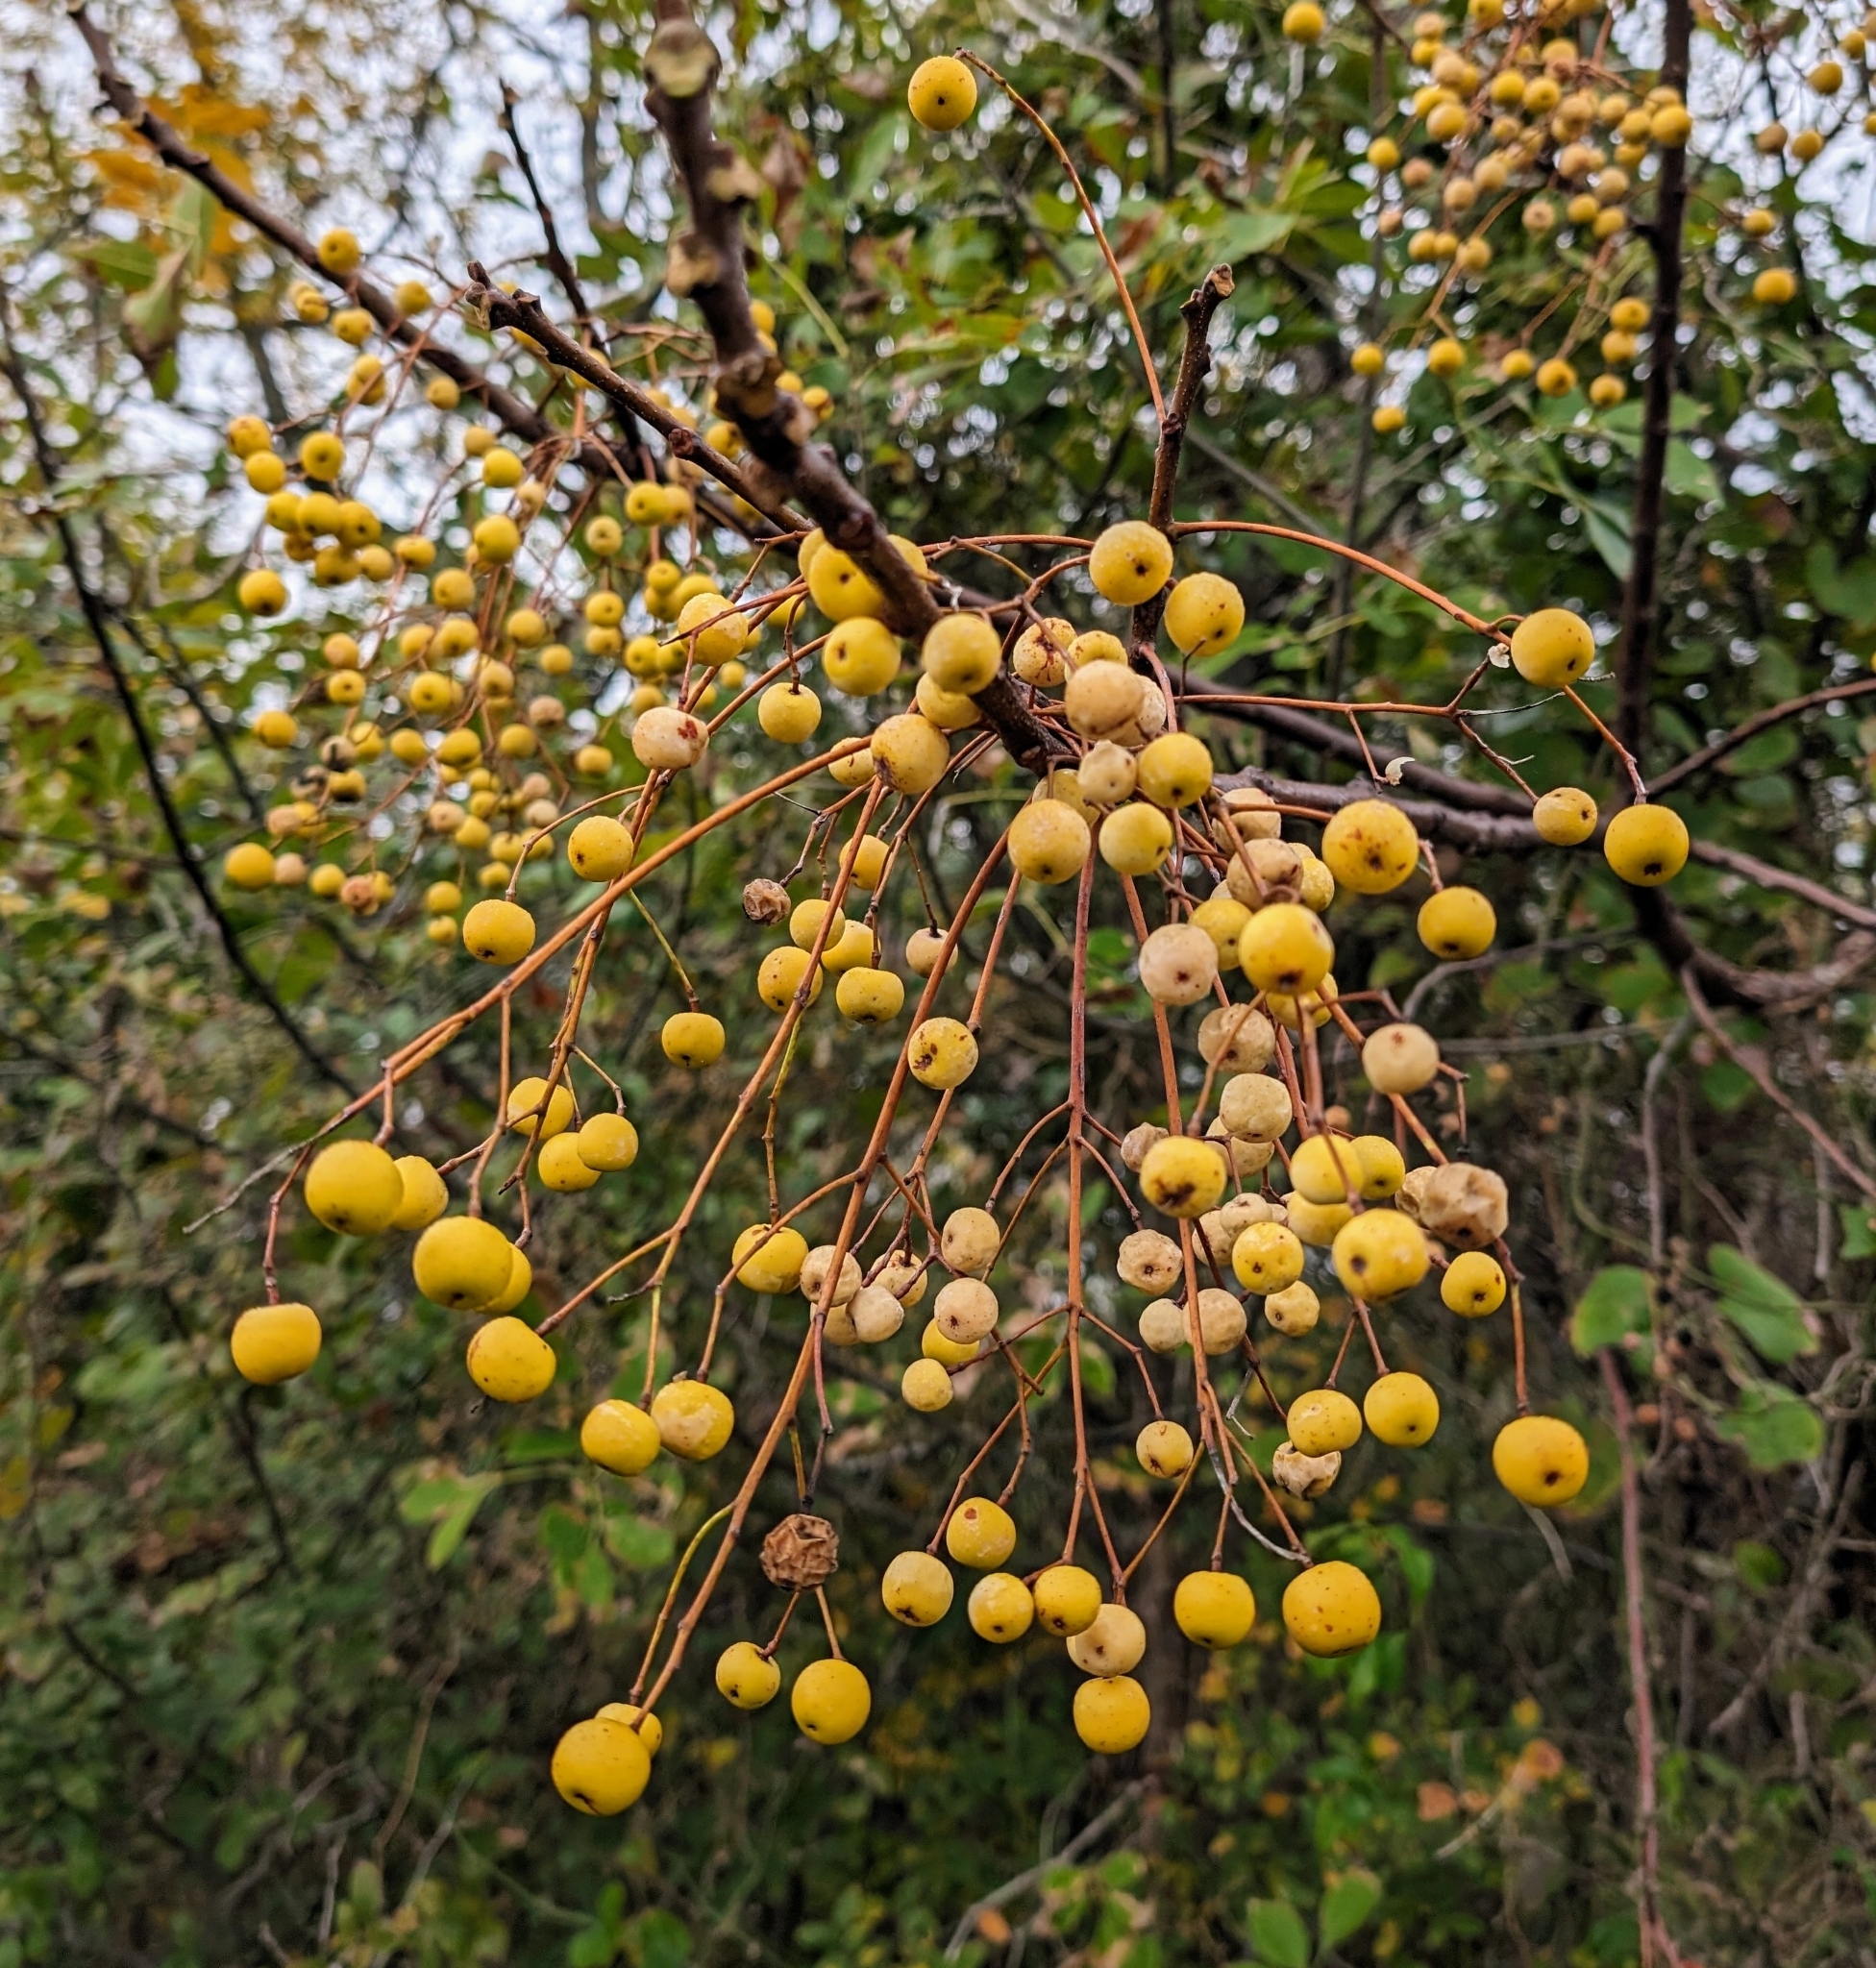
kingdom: Plantae
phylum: Tracheophyta
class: Magnoliopsida
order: Sapindales
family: Meliaceae
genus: Melia
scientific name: Melia azedarach
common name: Chinaberrytree
